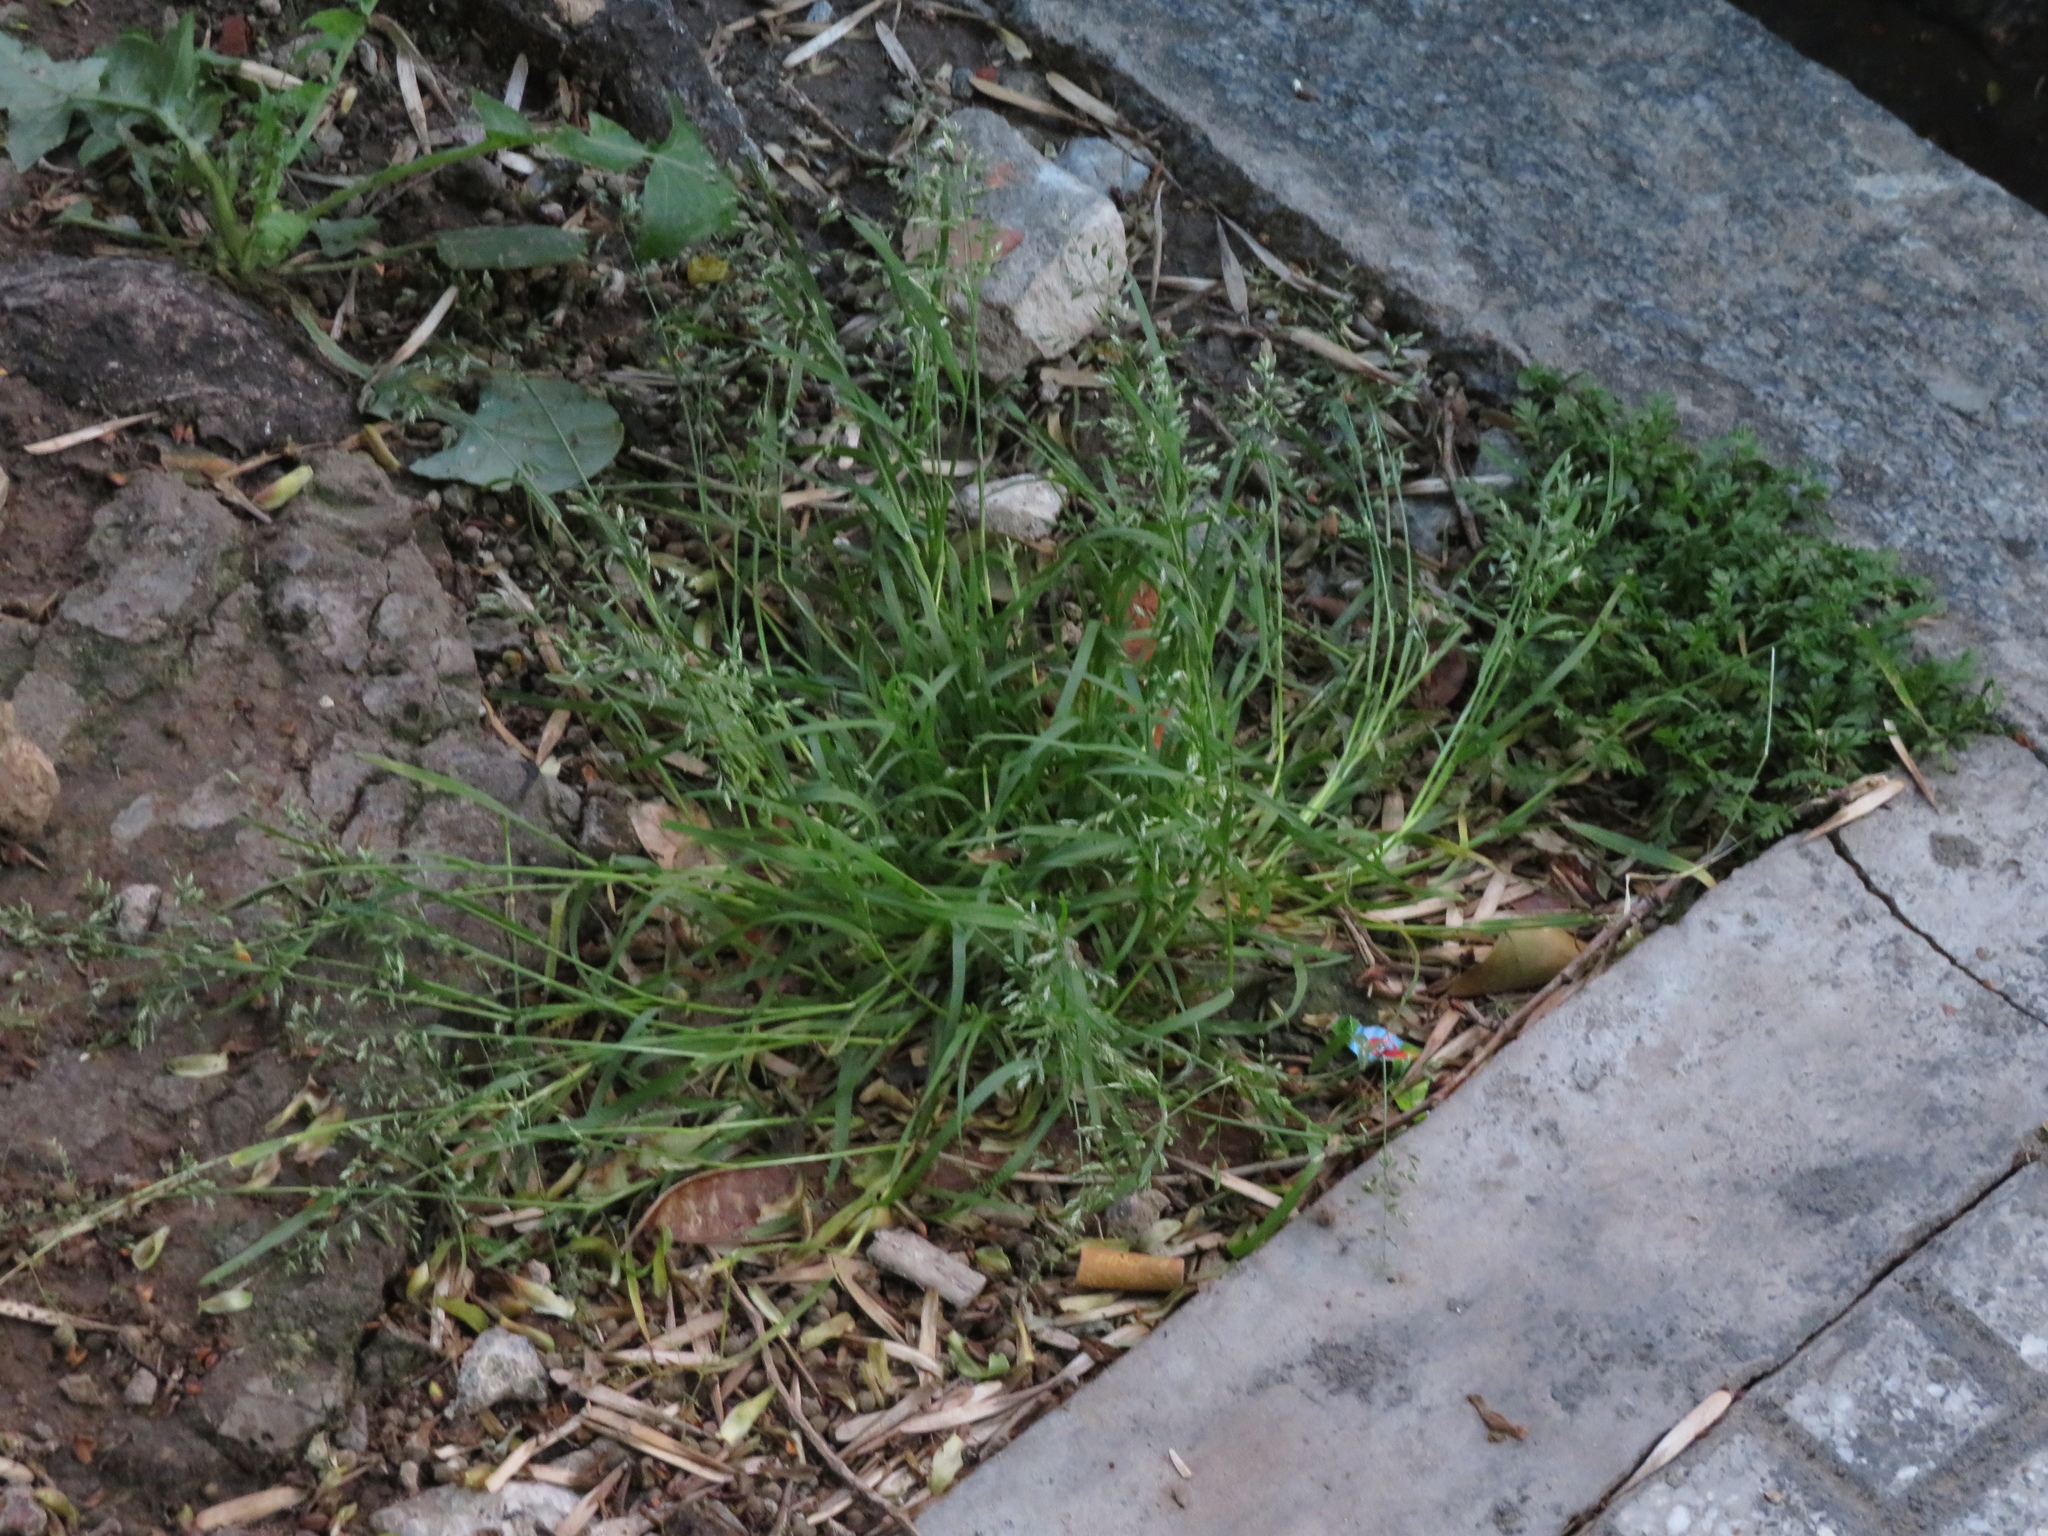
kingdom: Plantae
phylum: Tracheophyta
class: Liliopsida
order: Poales
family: Poaceae
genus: Poa
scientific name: Poa annua
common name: Annual bluegrass
